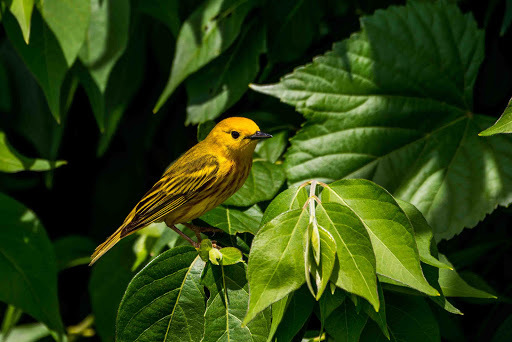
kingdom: Animalia
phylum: Chordata
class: Aves
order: Passeriformes
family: Parulidae
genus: Setophaga
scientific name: Setophaga petechia
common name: Yellow warbler
